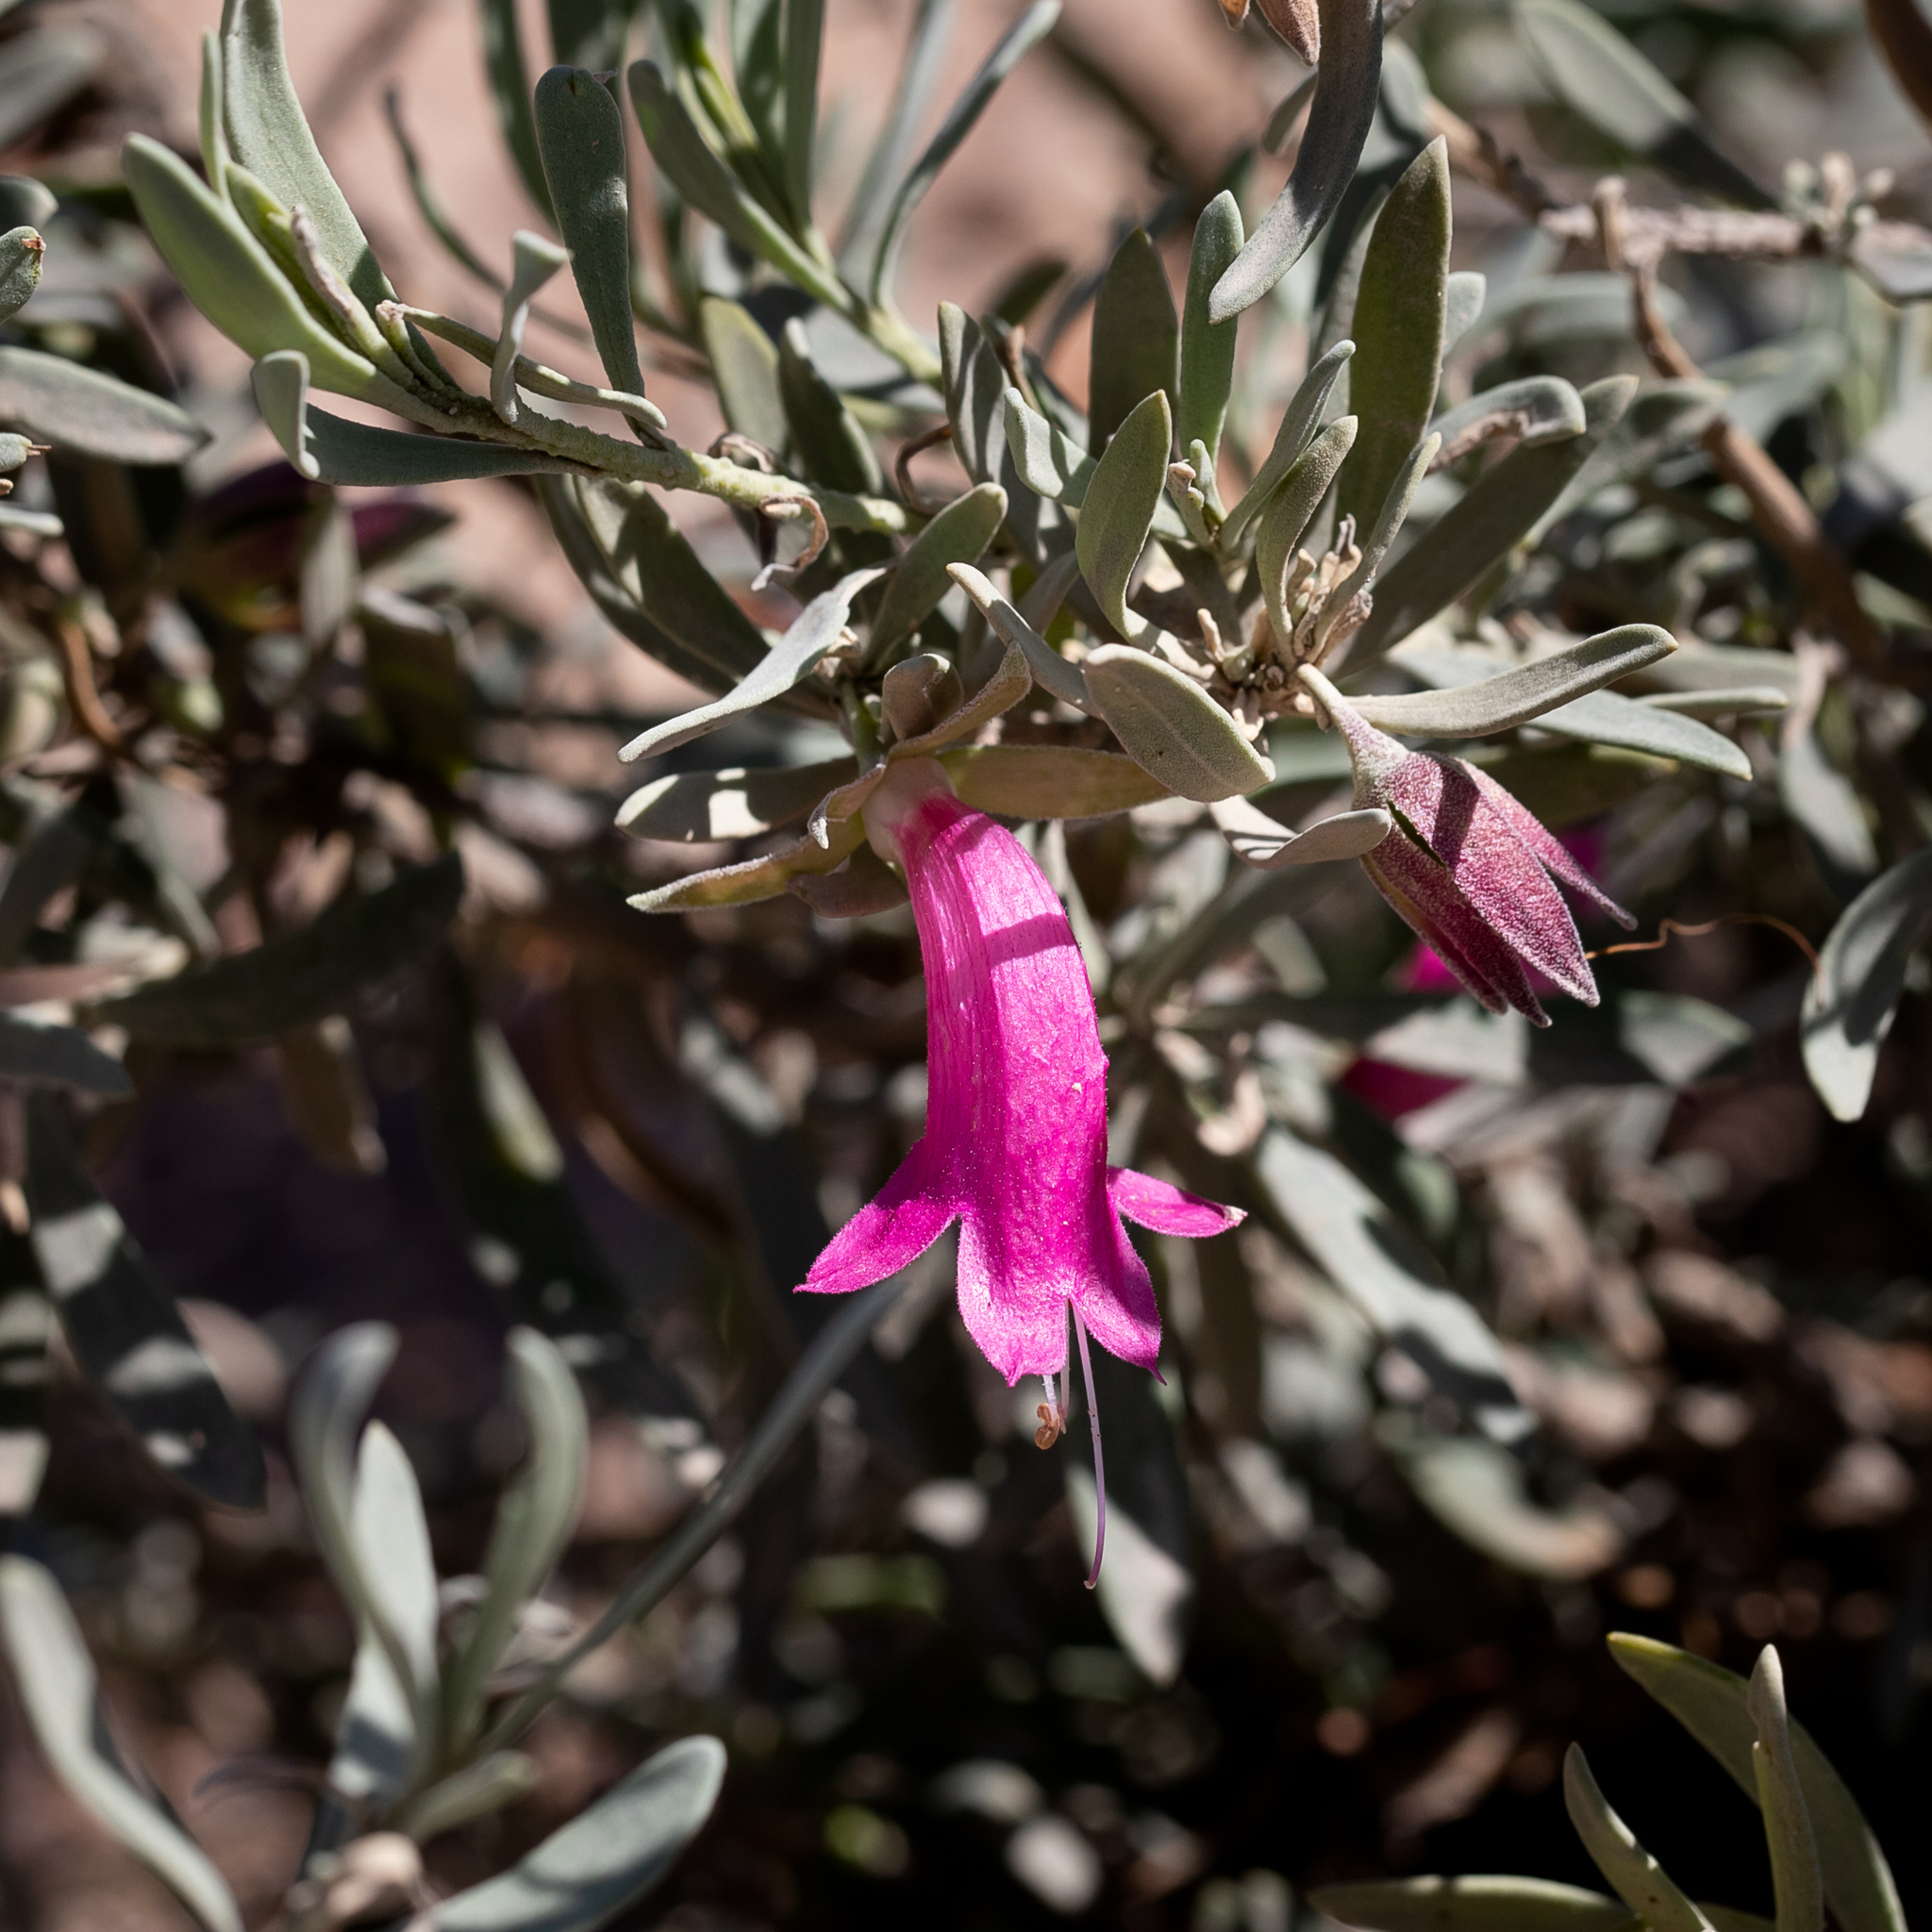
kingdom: Plantae
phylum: Tracheophyta
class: Magnoliopsida
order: Lamiales
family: Scrophulariaceae
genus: Eremophila
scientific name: Eremophila latrobei
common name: Crimson turkeybush
